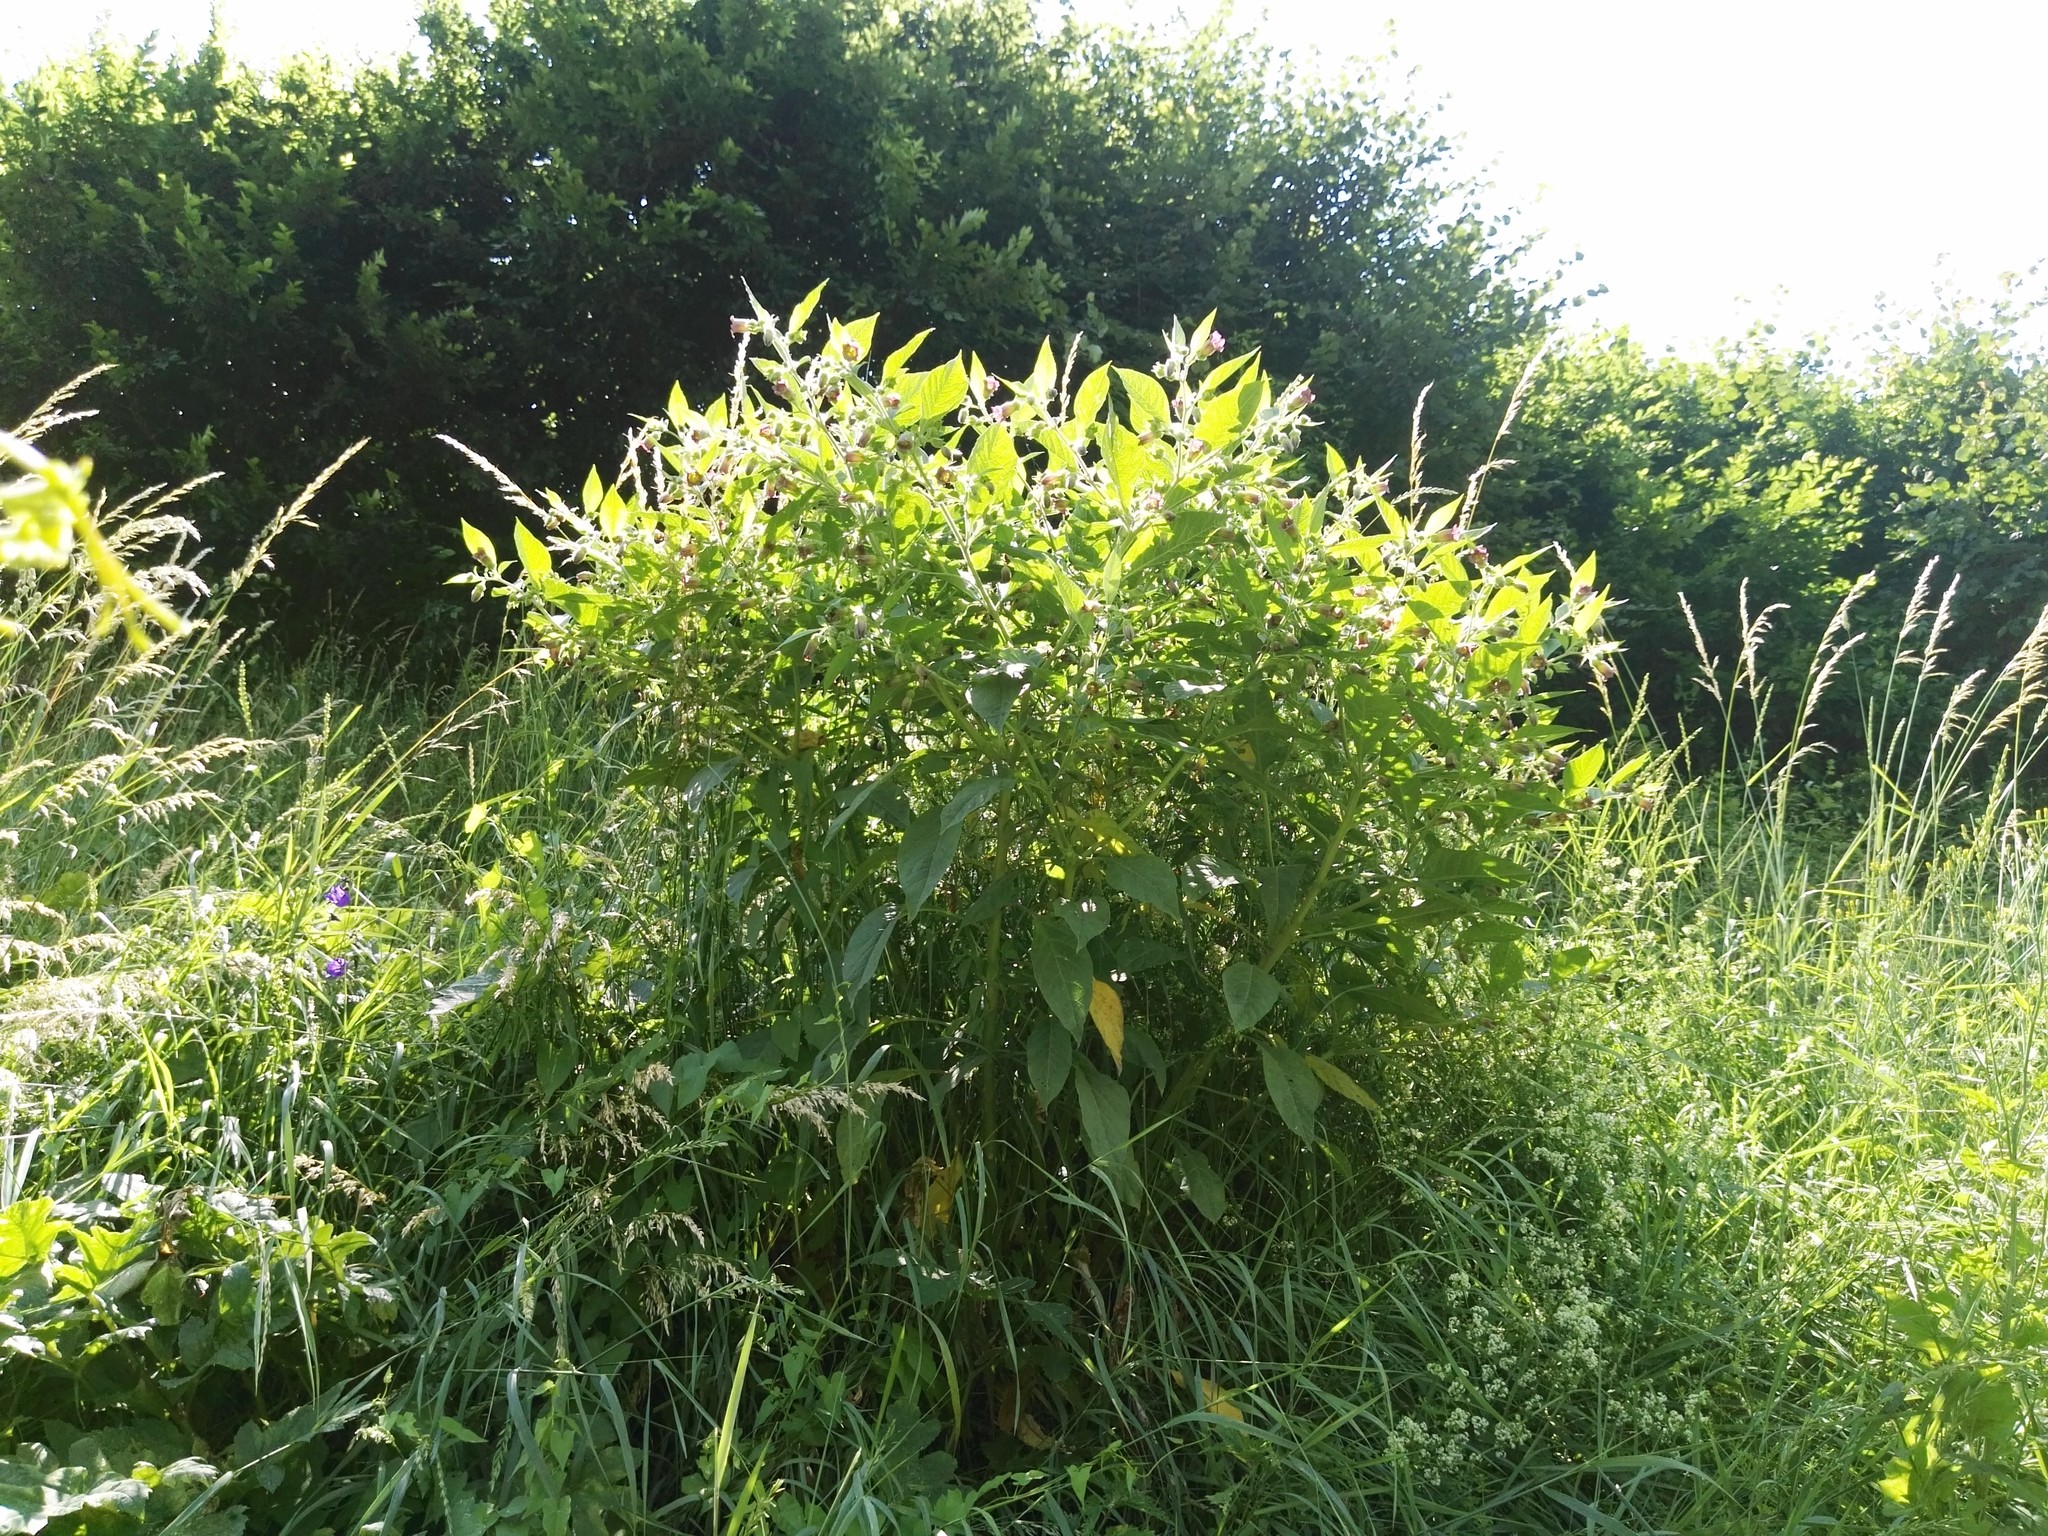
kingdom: Plantae
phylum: Tracheophyta
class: Magnoliopsida
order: Solanales
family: Solanaceae
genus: Atropa
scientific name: Atropa belladonna
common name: Deadly nightshade
